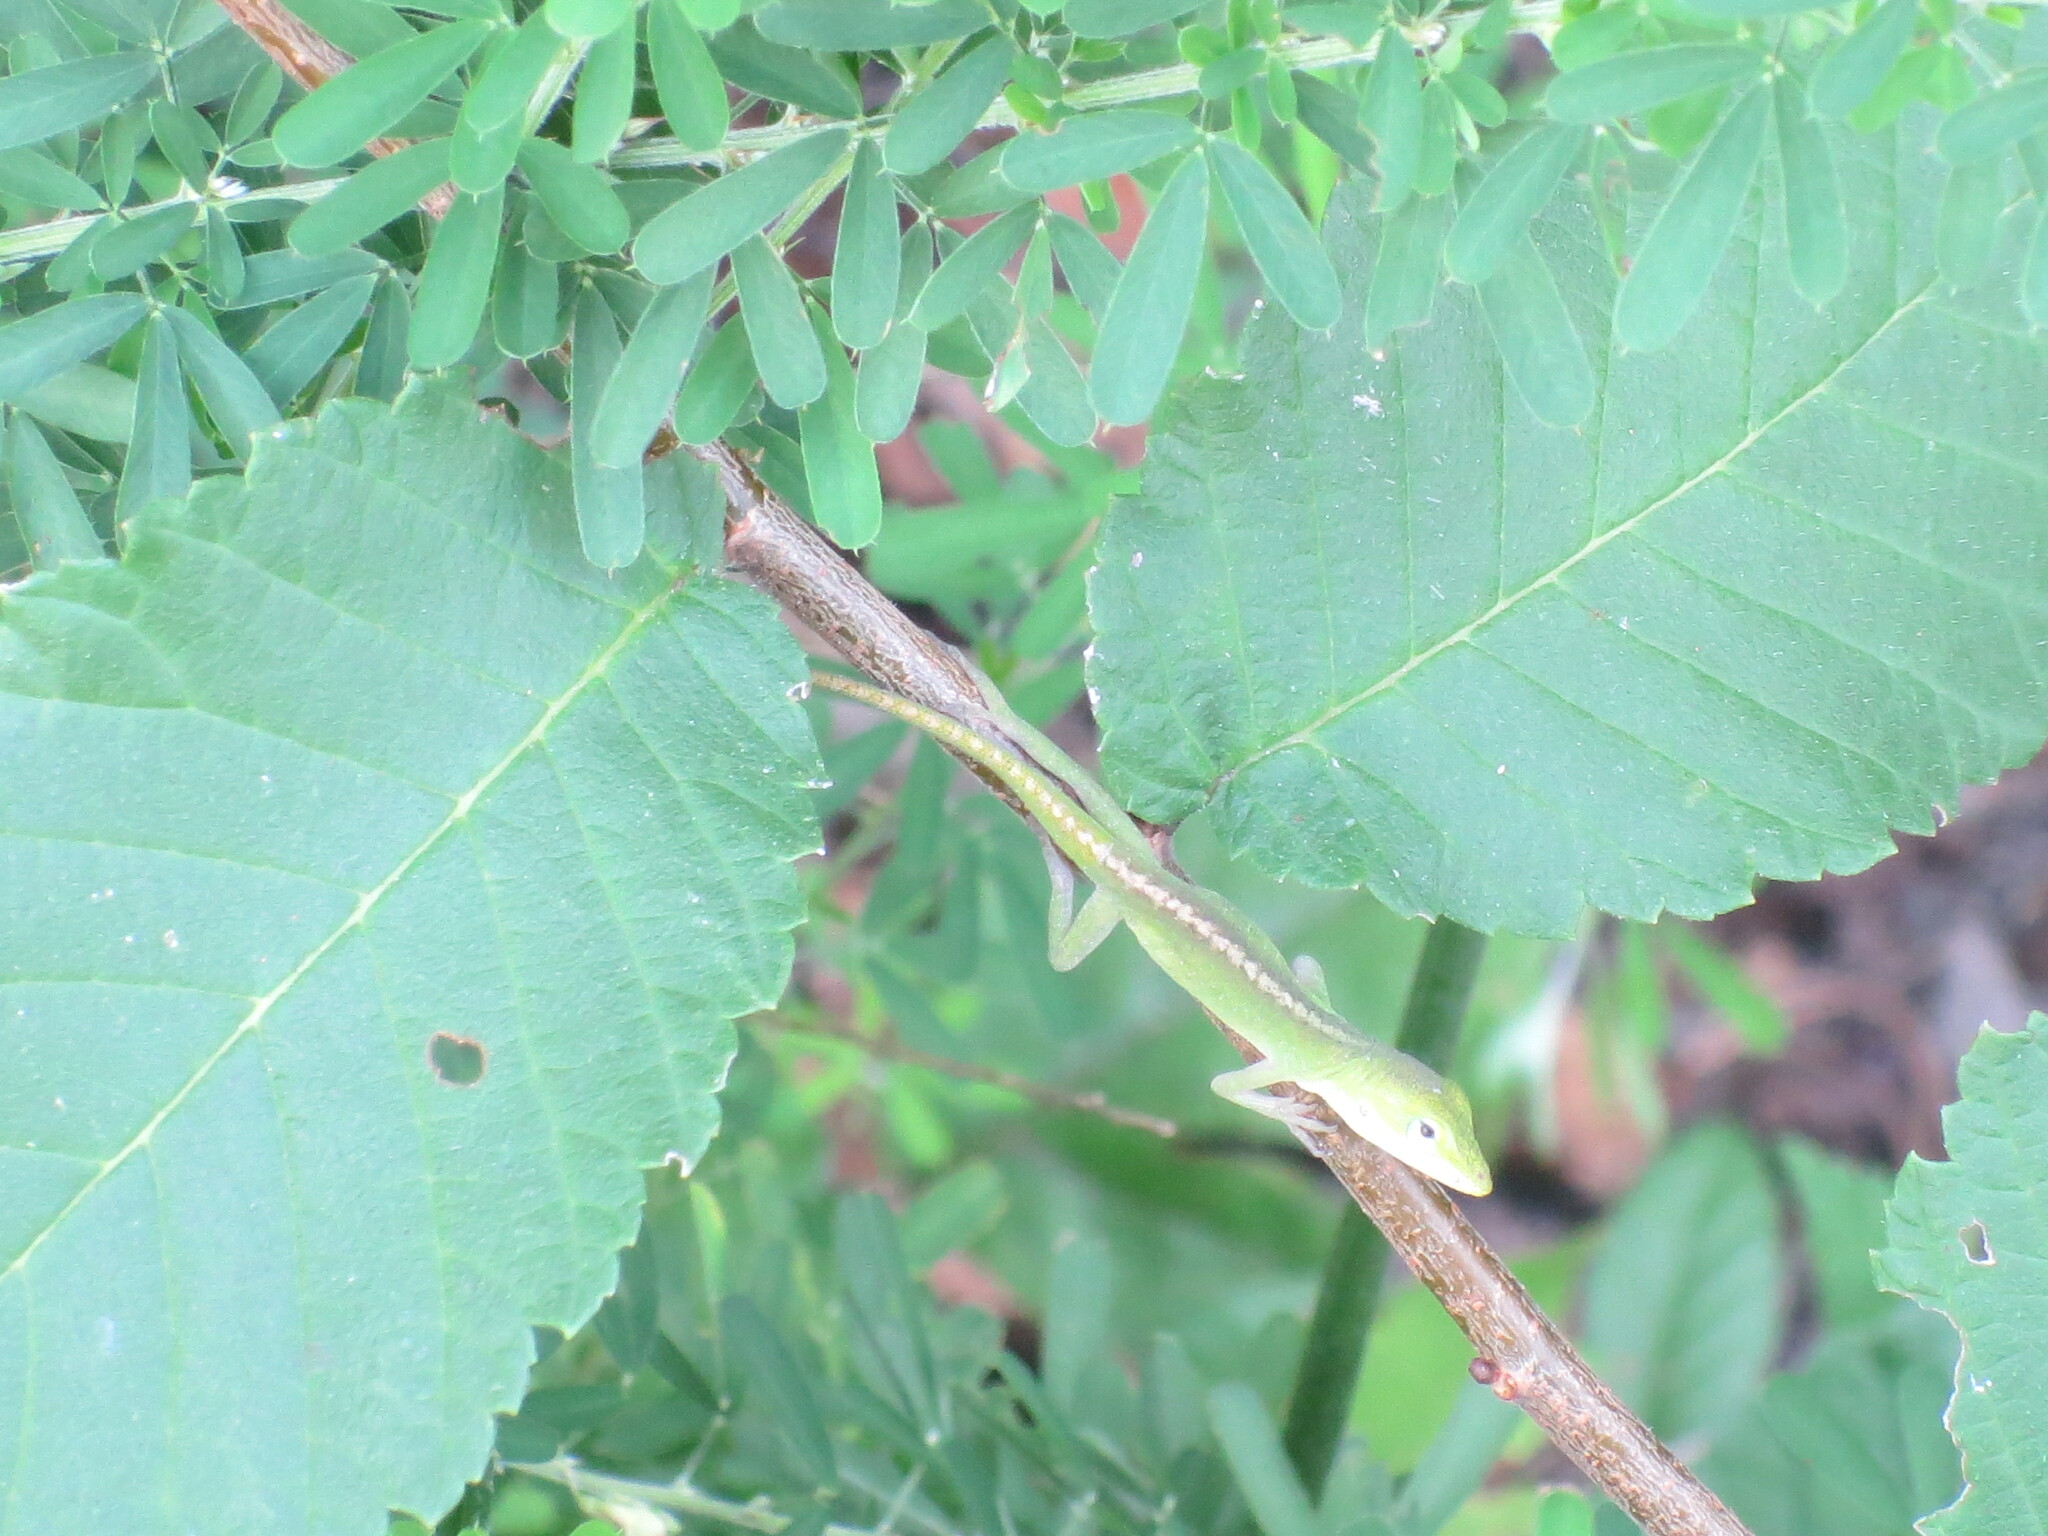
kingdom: Animalia
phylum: Chordata
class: Squamata
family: Dactyloidae
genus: Anolis
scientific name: Anolis carolinensis
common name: Green anole
